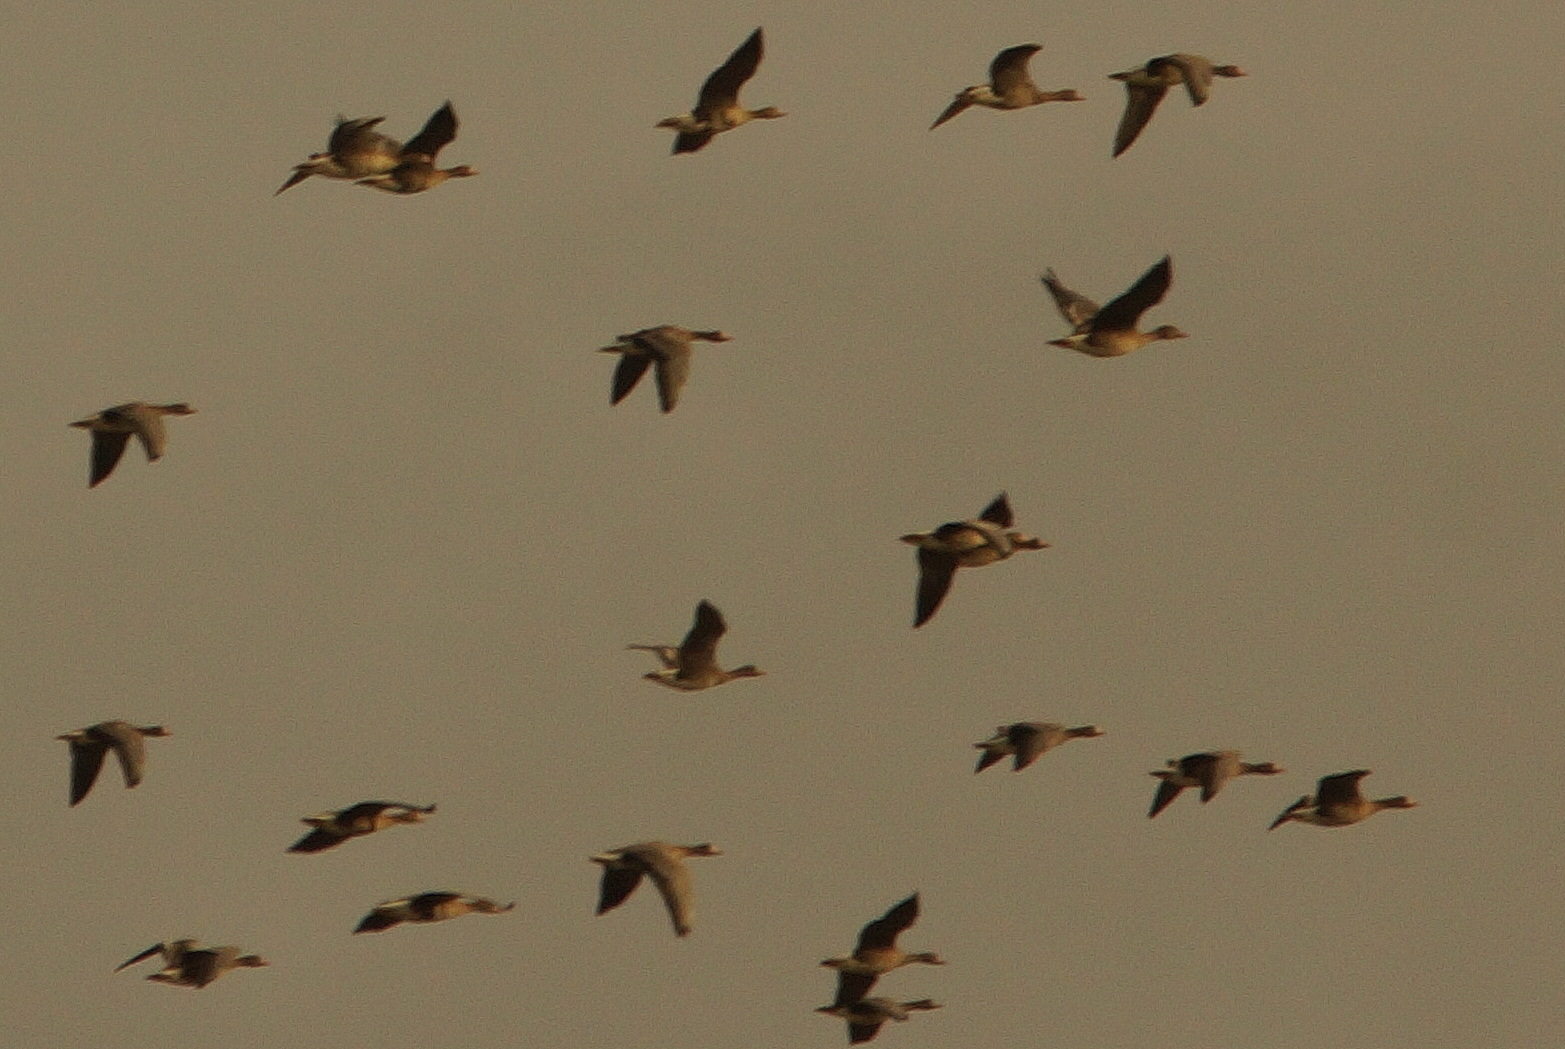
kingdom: Animalia
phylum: Chordata
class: Aves
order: Anseriformes
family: Anatidae
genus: Anser
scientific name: Anser albifrons
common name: Greater white-fronted goose
